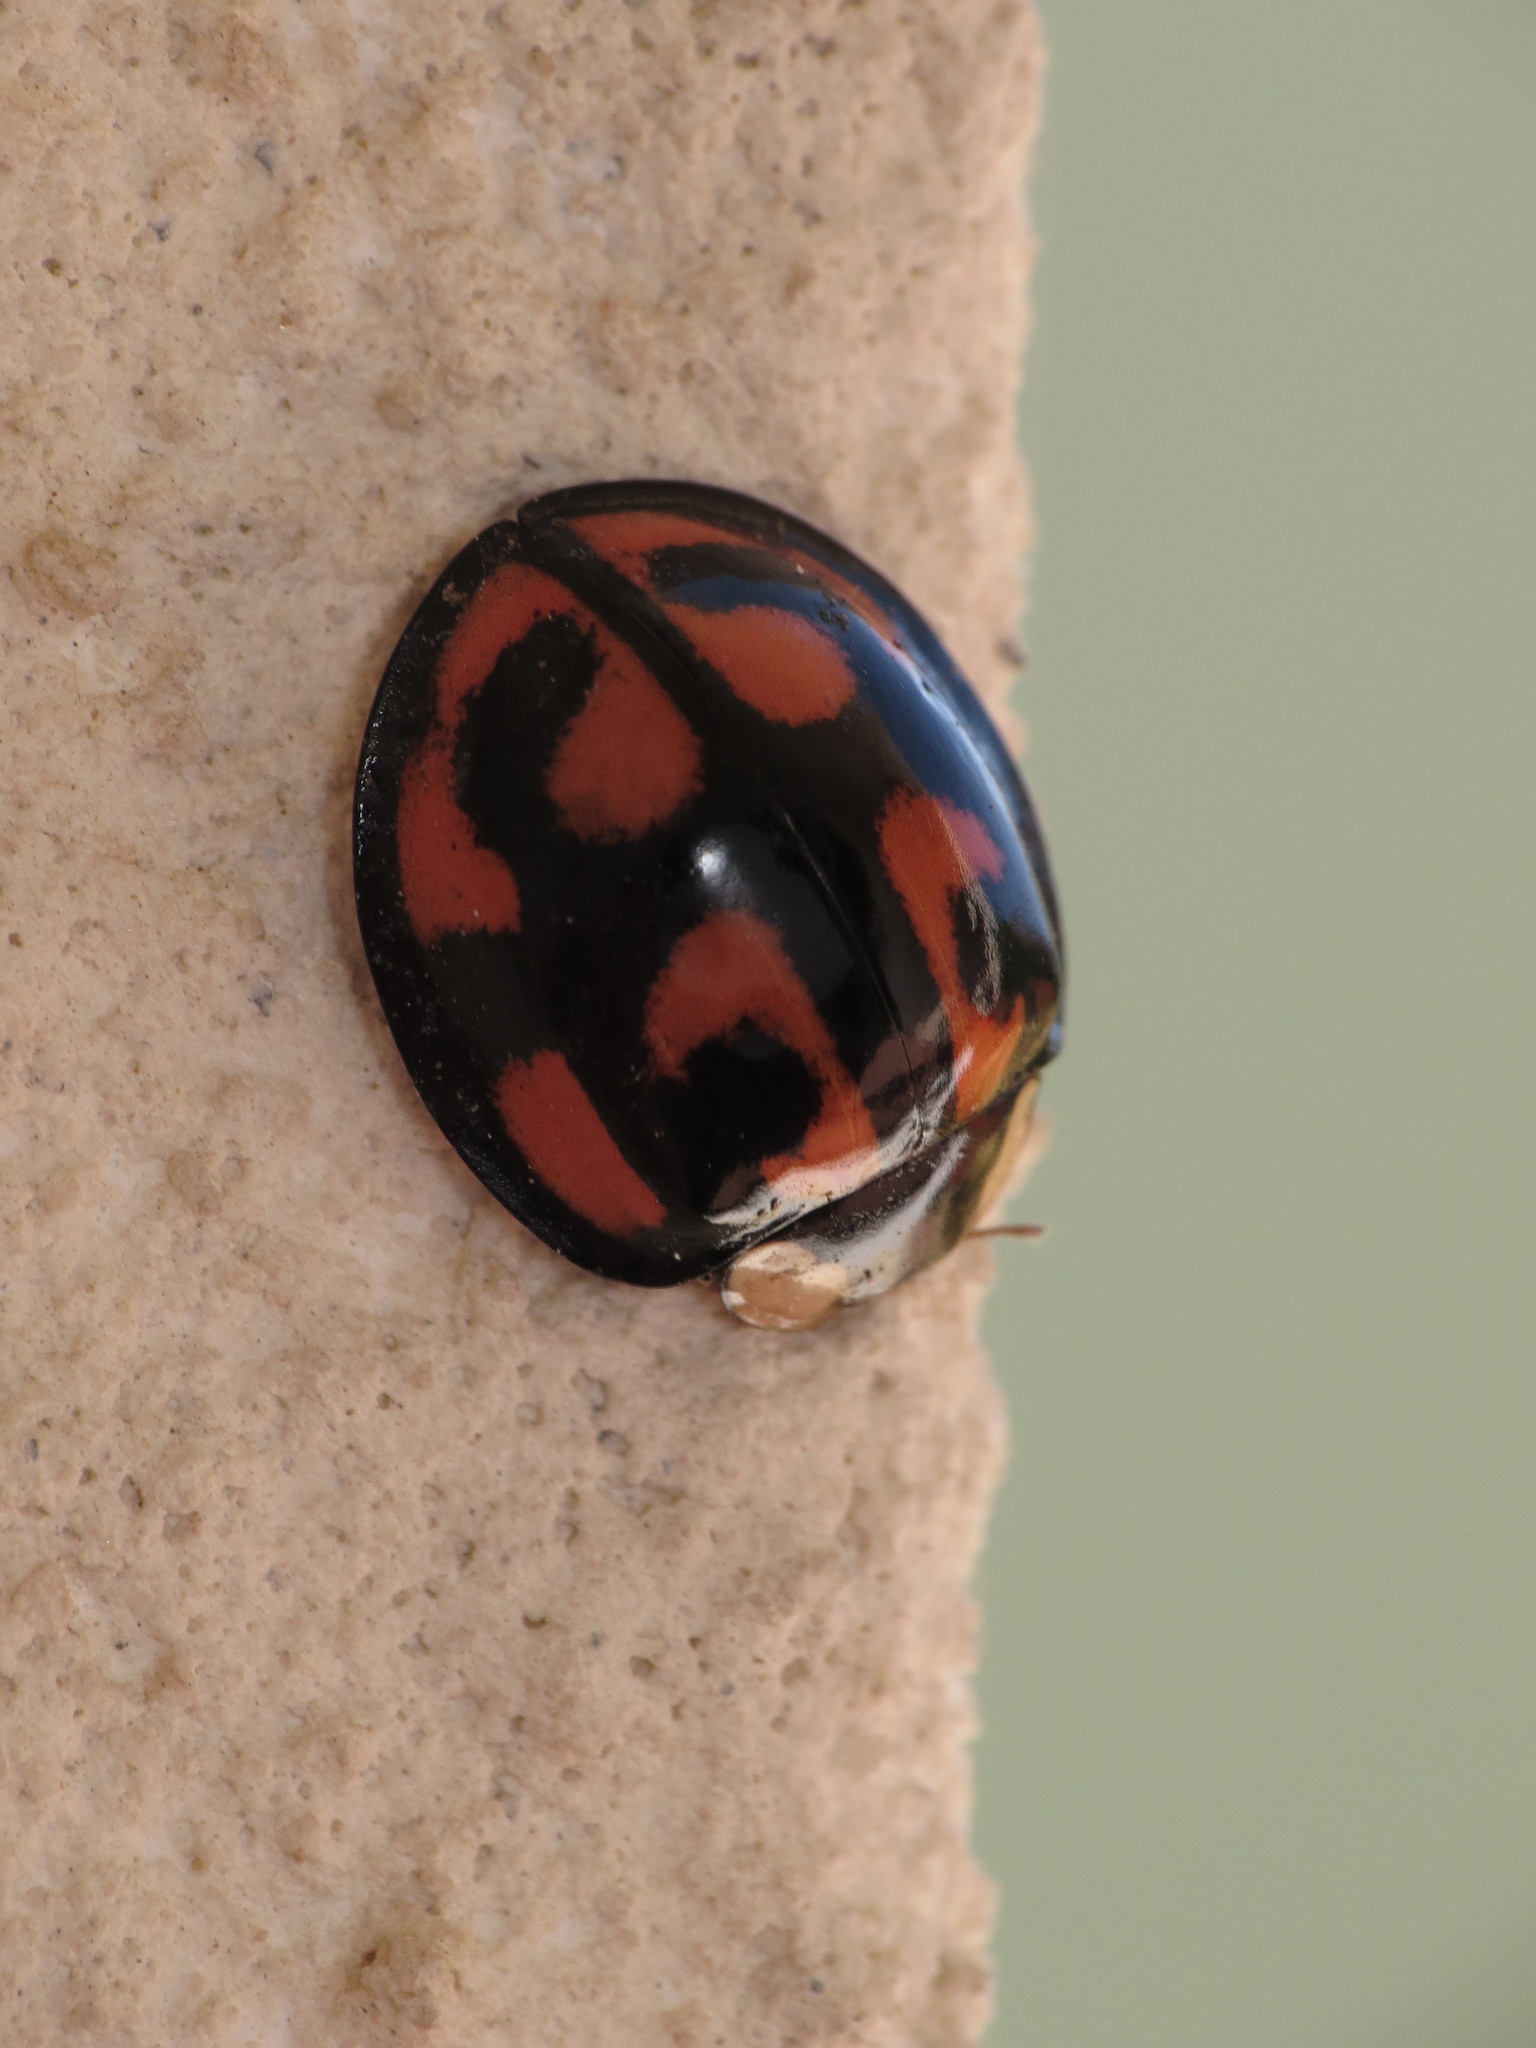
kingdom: Animalia
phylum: Arthropoda
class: Insecta
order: Coleoptera
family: Coccinellidae
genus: Aiolocaria
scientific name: Aiolocaria hexaspilota
